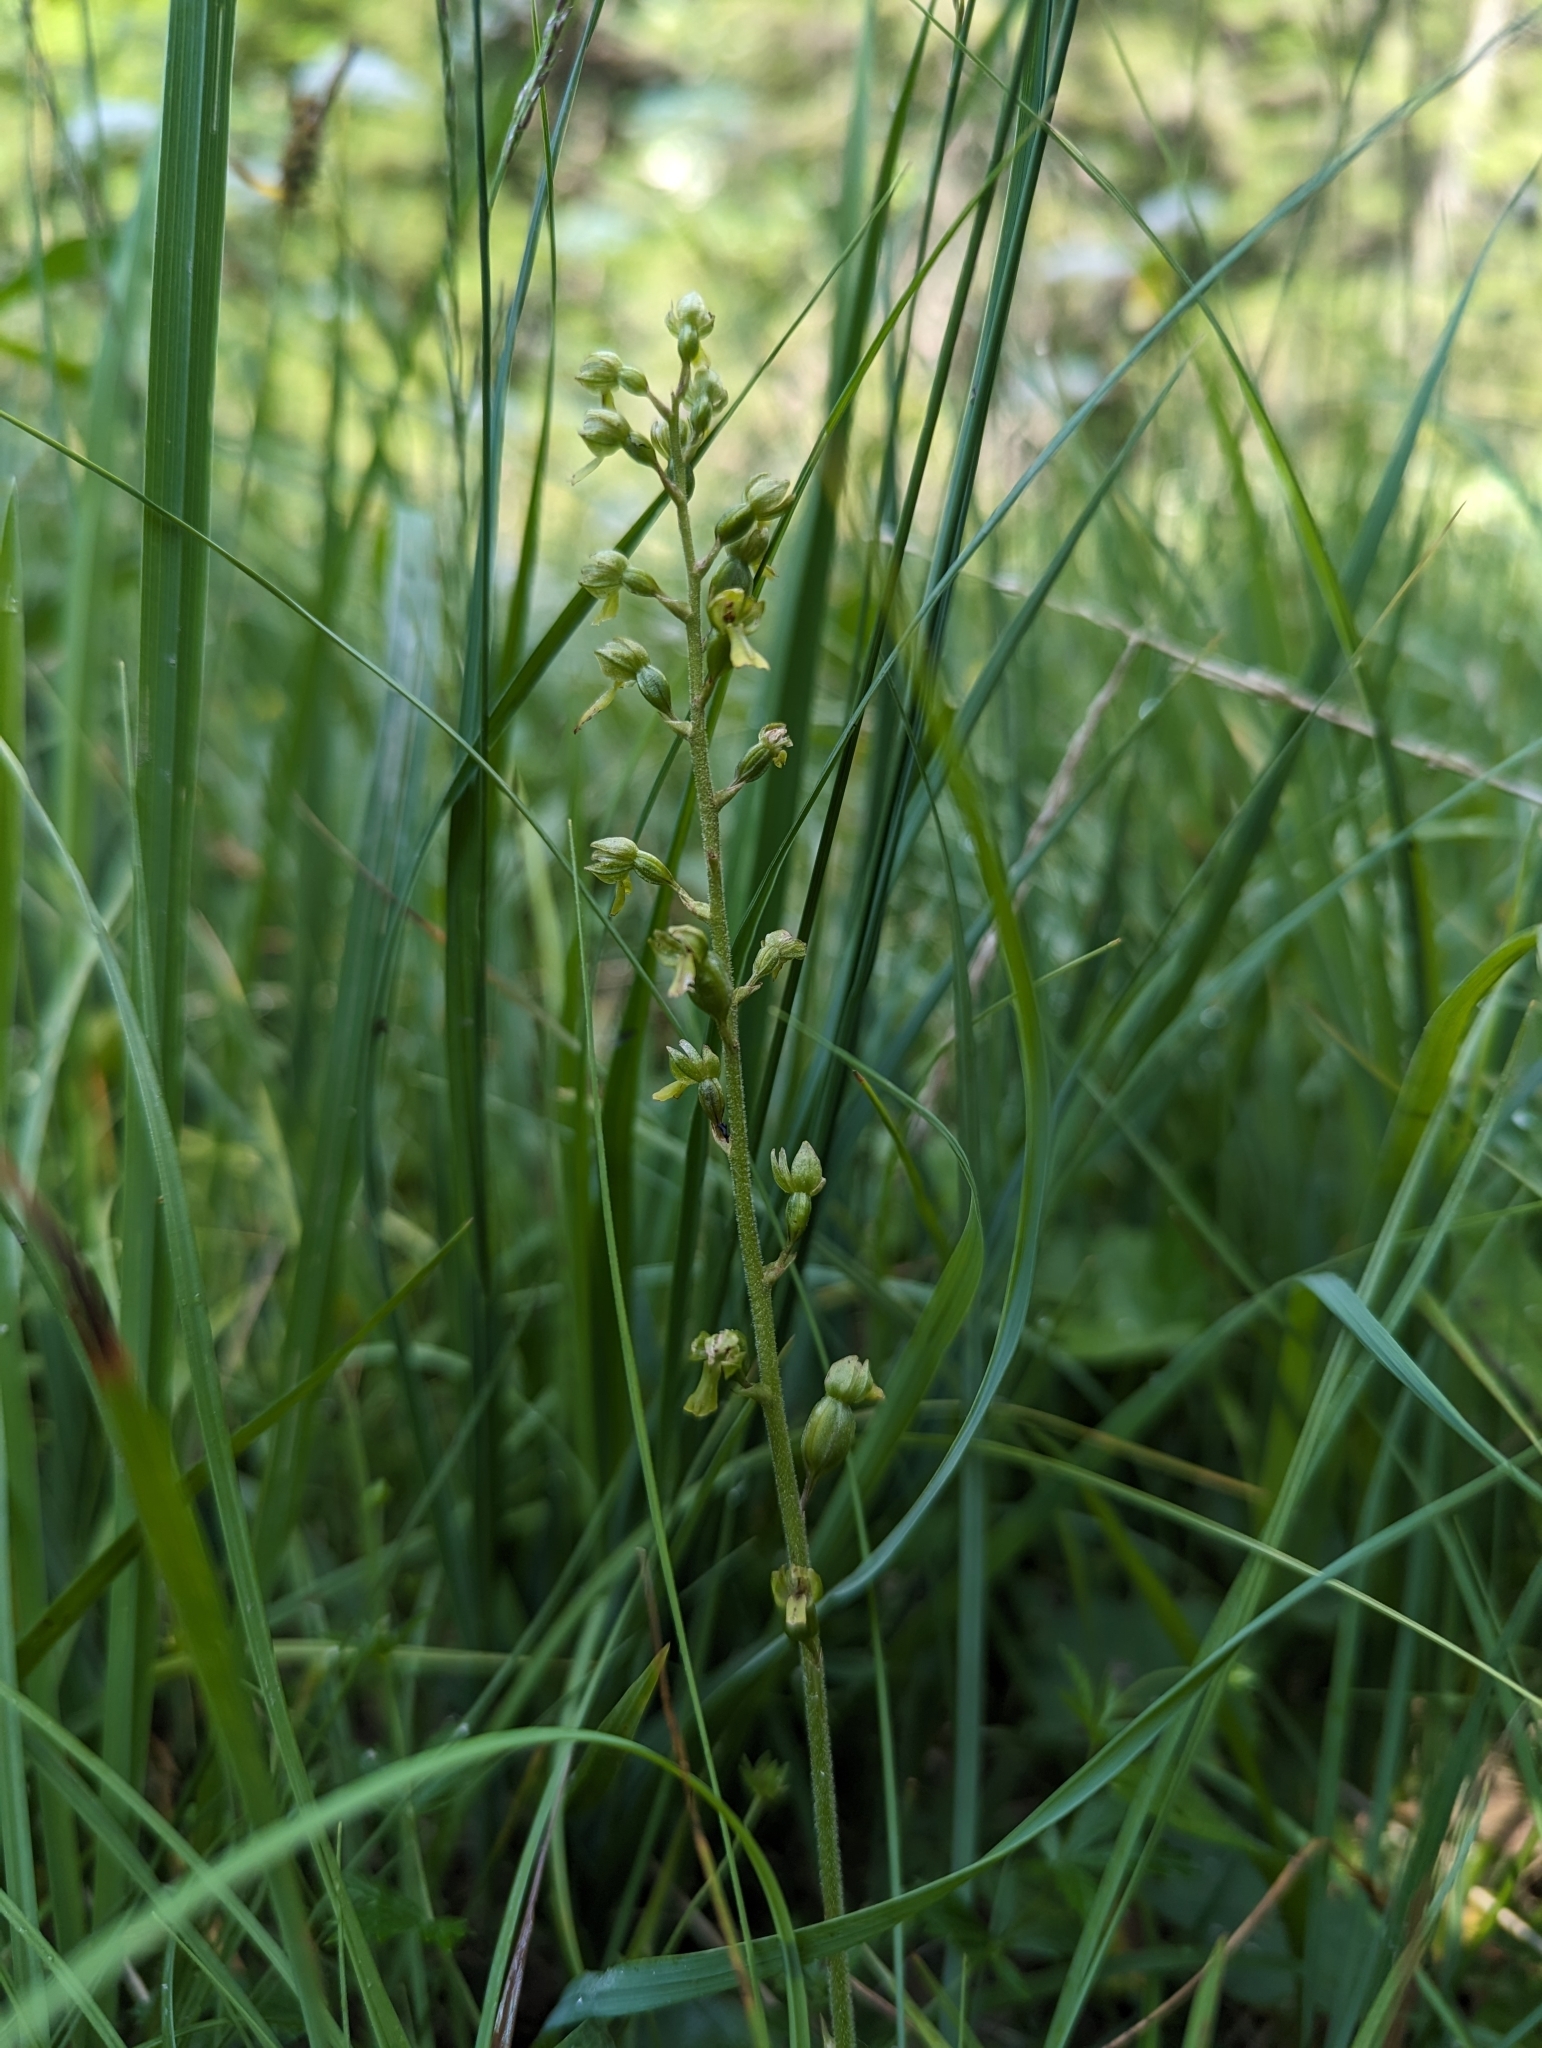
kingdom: Plantae
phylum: Tracheophyta
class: Liliopsida
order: Asparagales
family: Orchidaceae
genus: Neottia
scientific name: Neottia ovata
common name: Common twayblade
